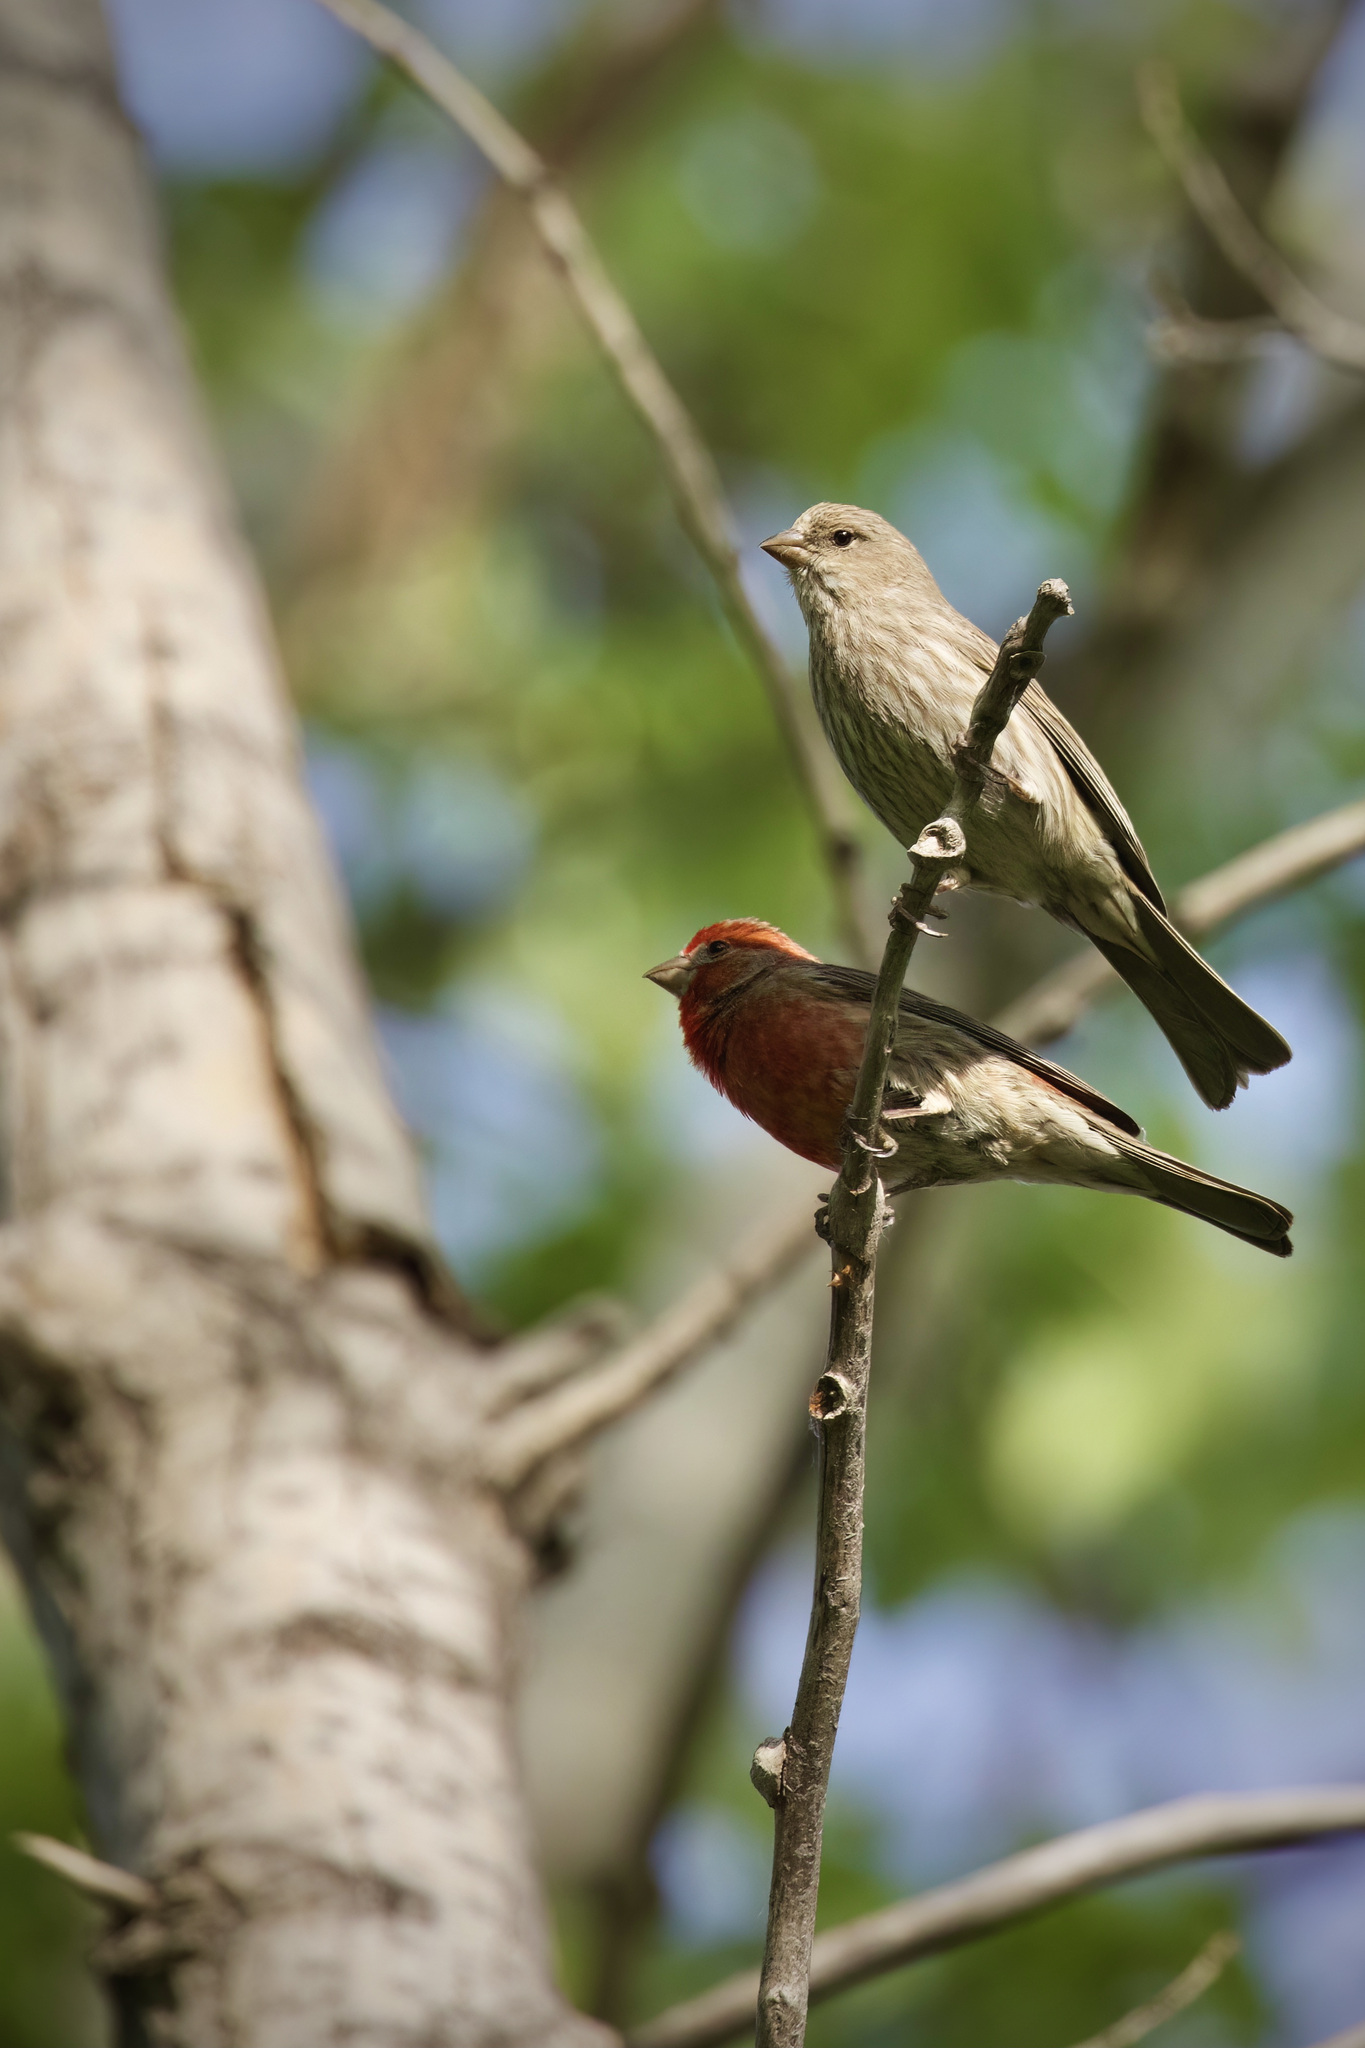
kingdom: Animalia
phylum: Chordata
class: Aves
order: Passeriformes
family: Fringillidae
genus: Haemorhous
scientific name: Haemorhous mexicanus
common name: House finch
